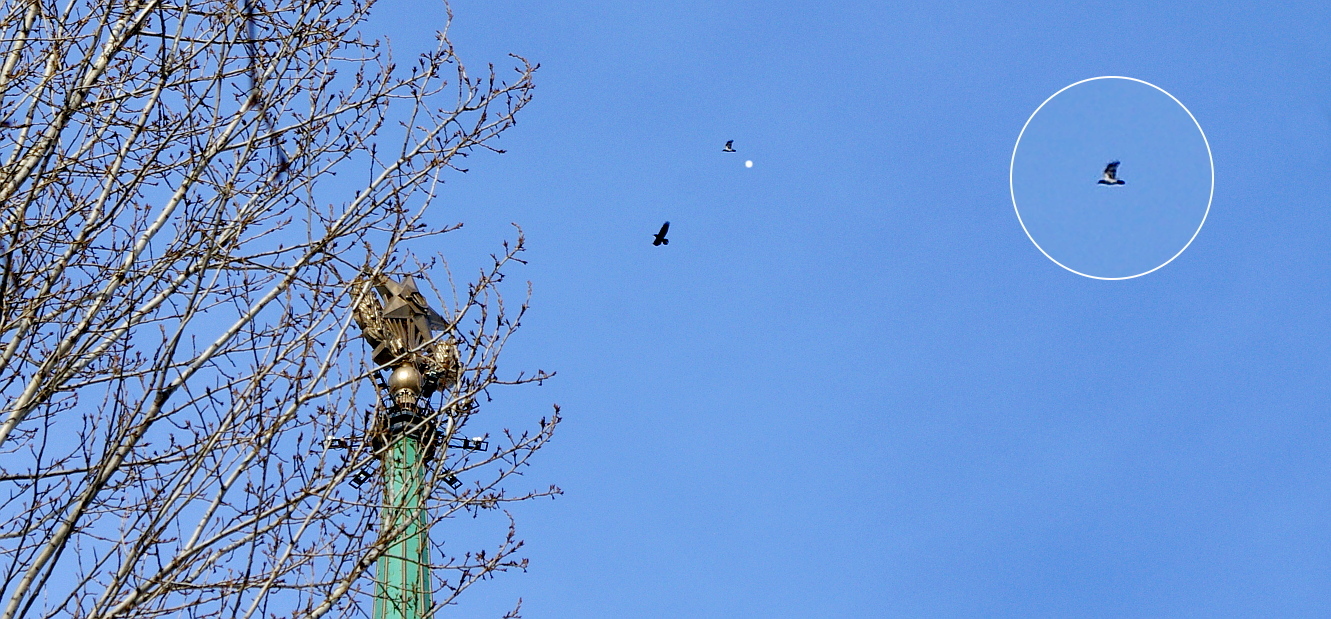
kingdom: Animalia
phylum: Chordata
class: Aves
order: Passeriformes
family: Corvidae
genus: Corvus
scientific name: Corvus cornix
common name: Hooded crow
